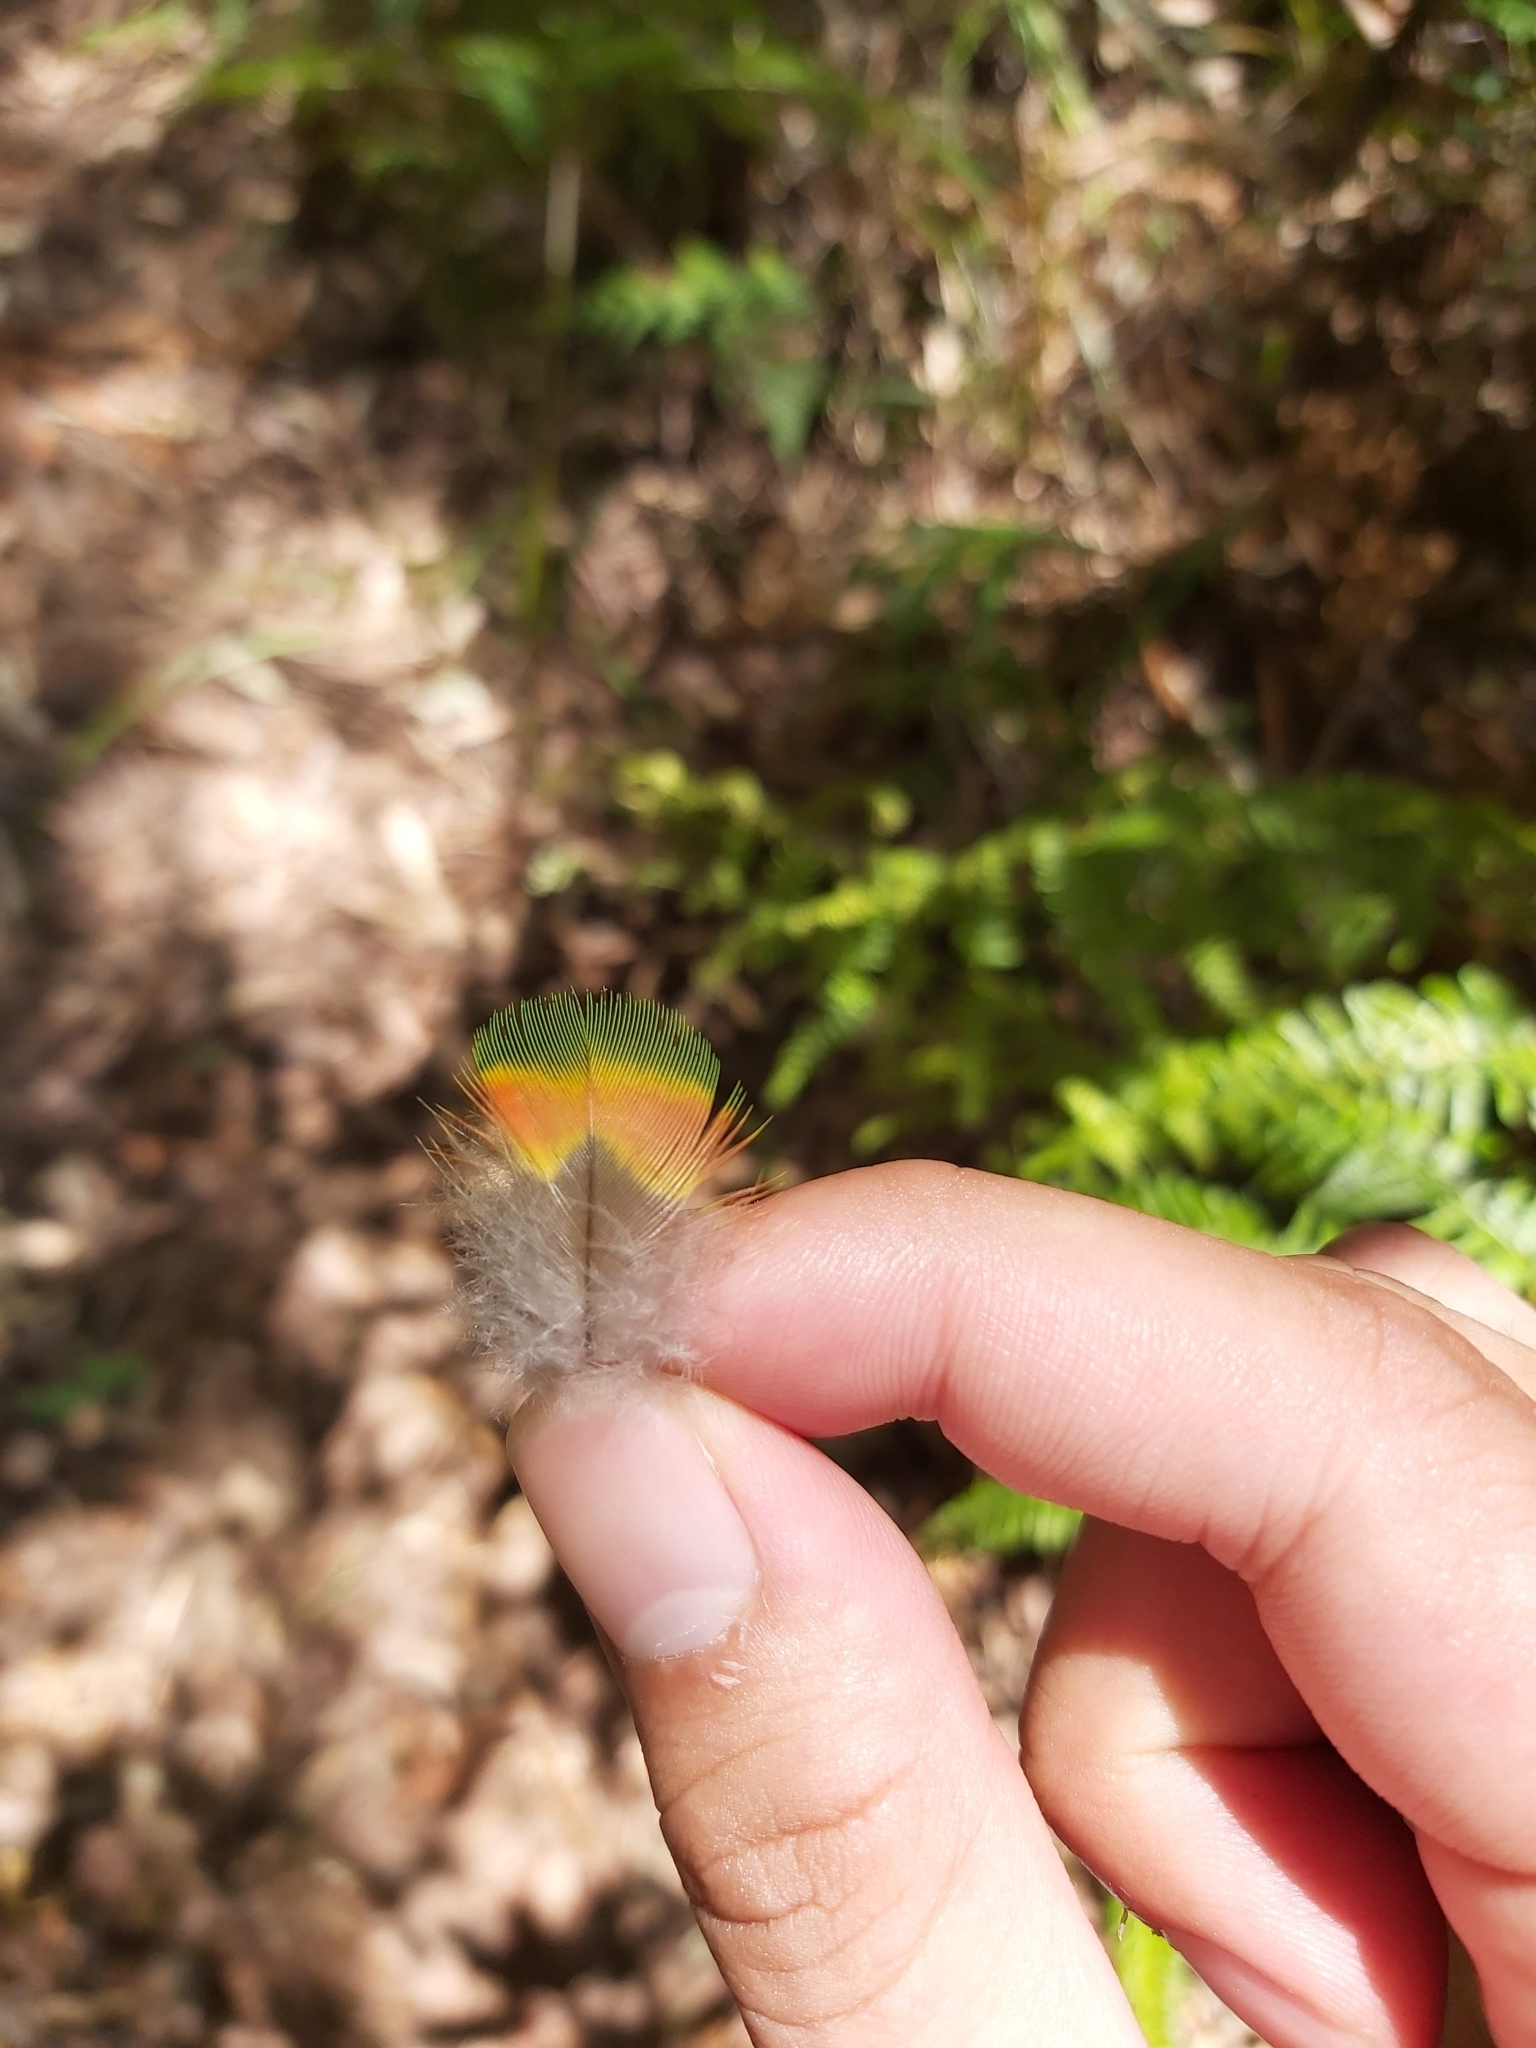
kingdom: Animalia
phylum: Chordata
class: Aves
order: Psittaciformes
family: Psittacidae
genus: Trichoglossus
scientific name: Trichoglossus haematodus
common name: Coconut lorikeet
